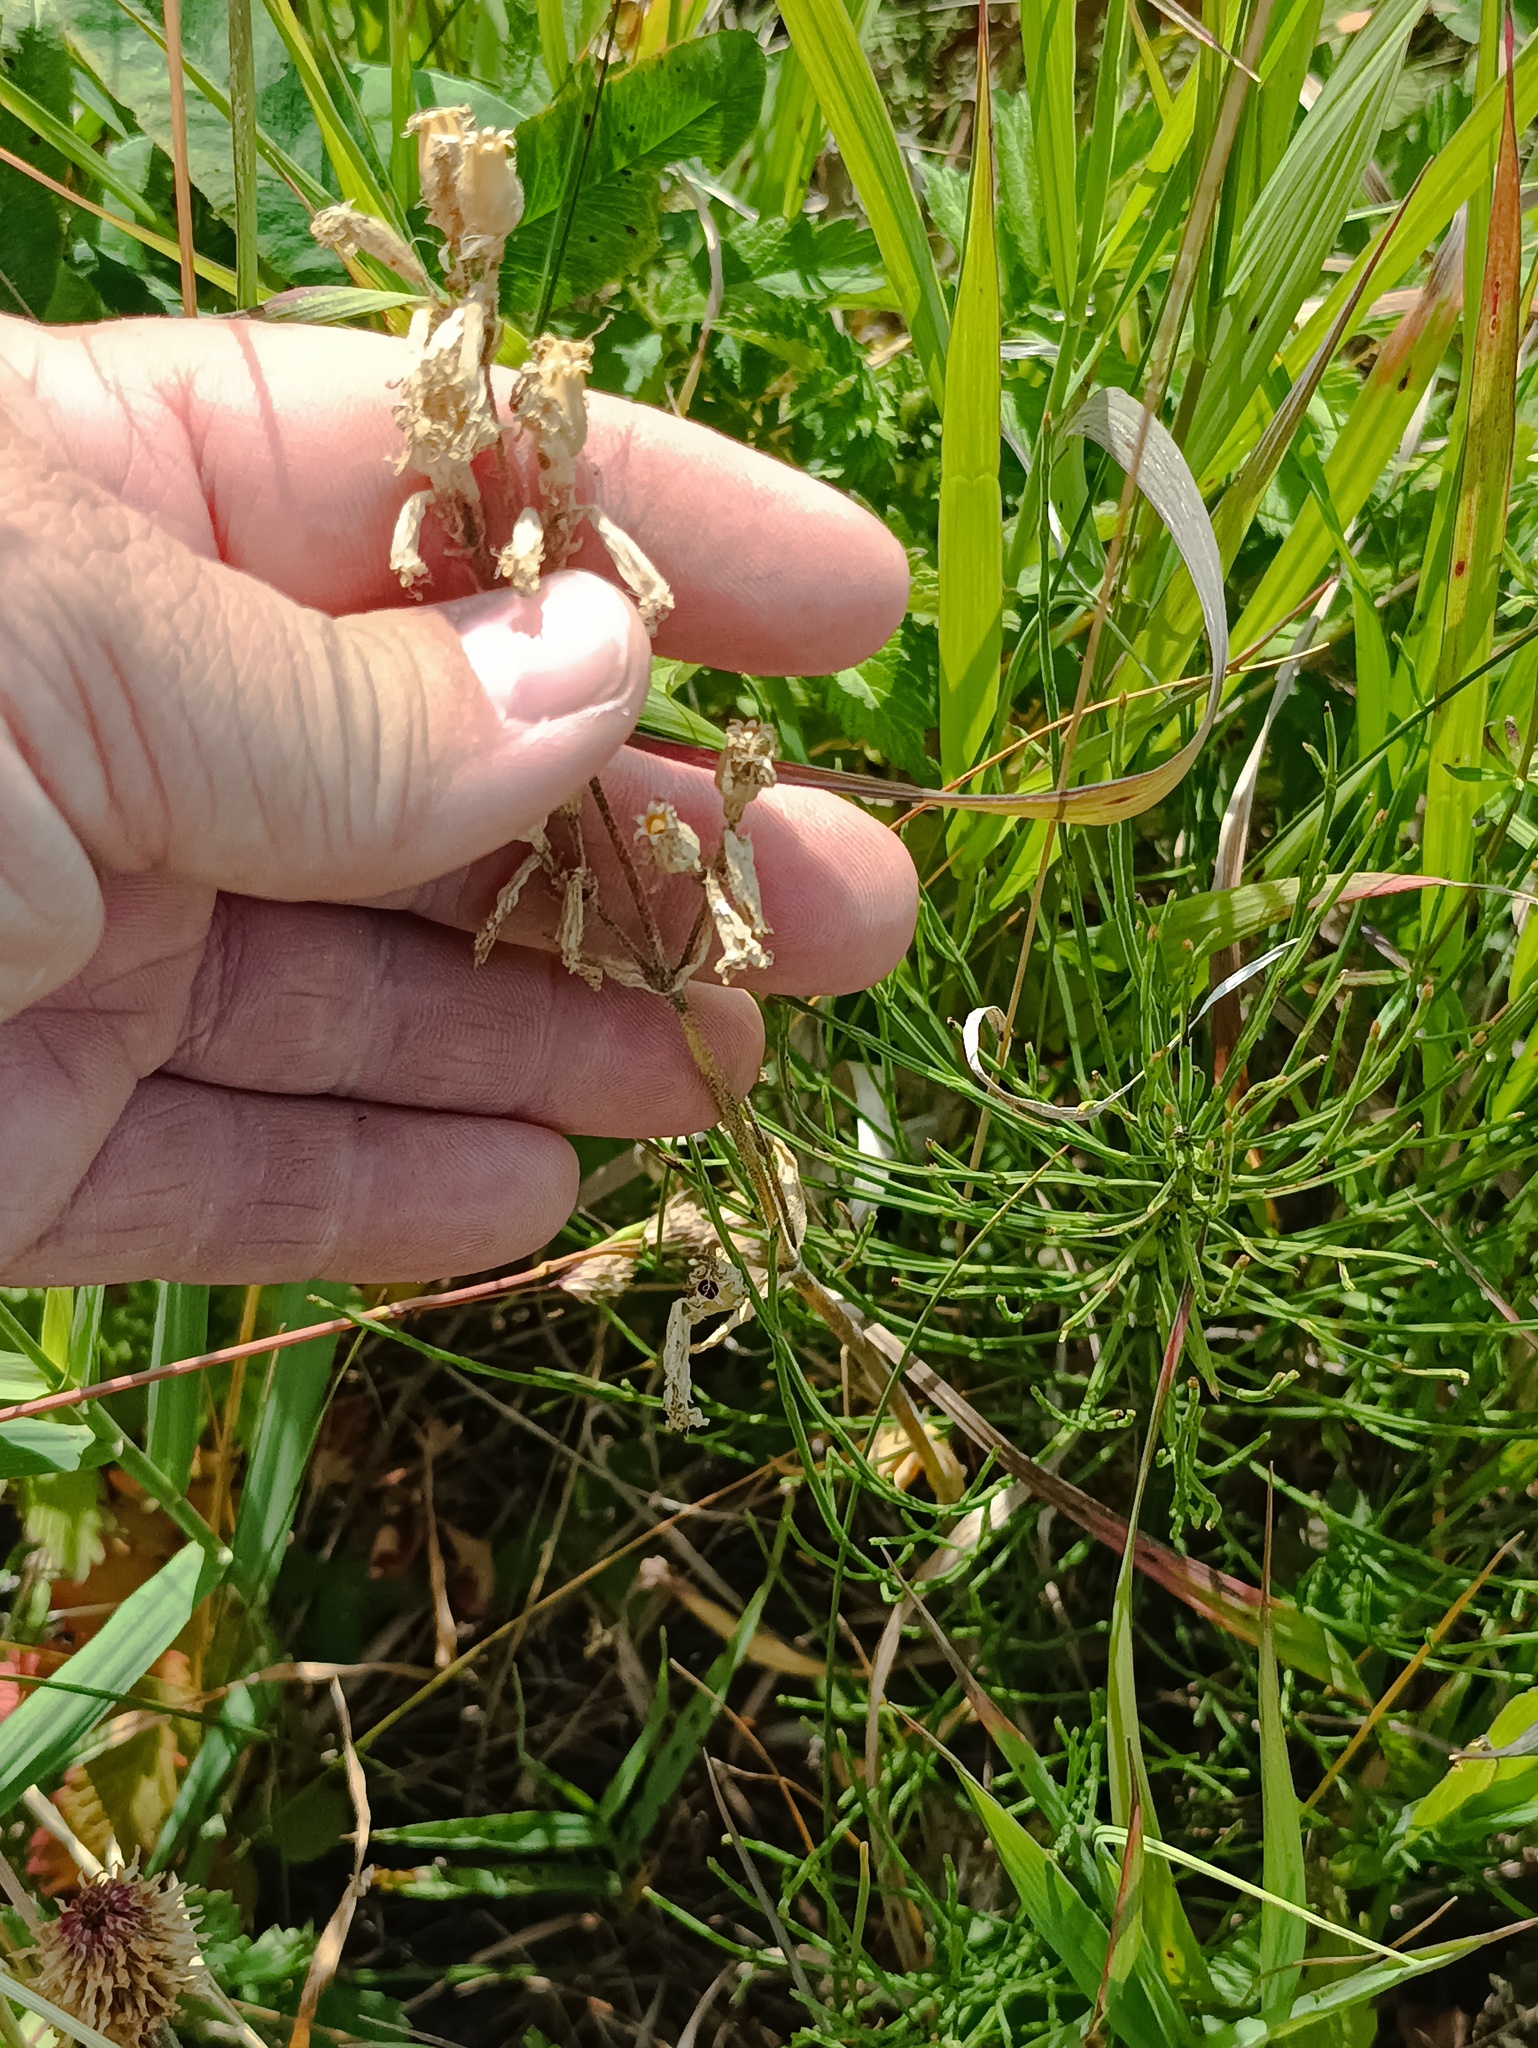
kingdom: Plantae
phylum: Tracheophyta
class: Magnoliopsida
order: Caryophyllales
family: Caryophyllaceae
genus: Silene
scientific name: Silene viscosa
